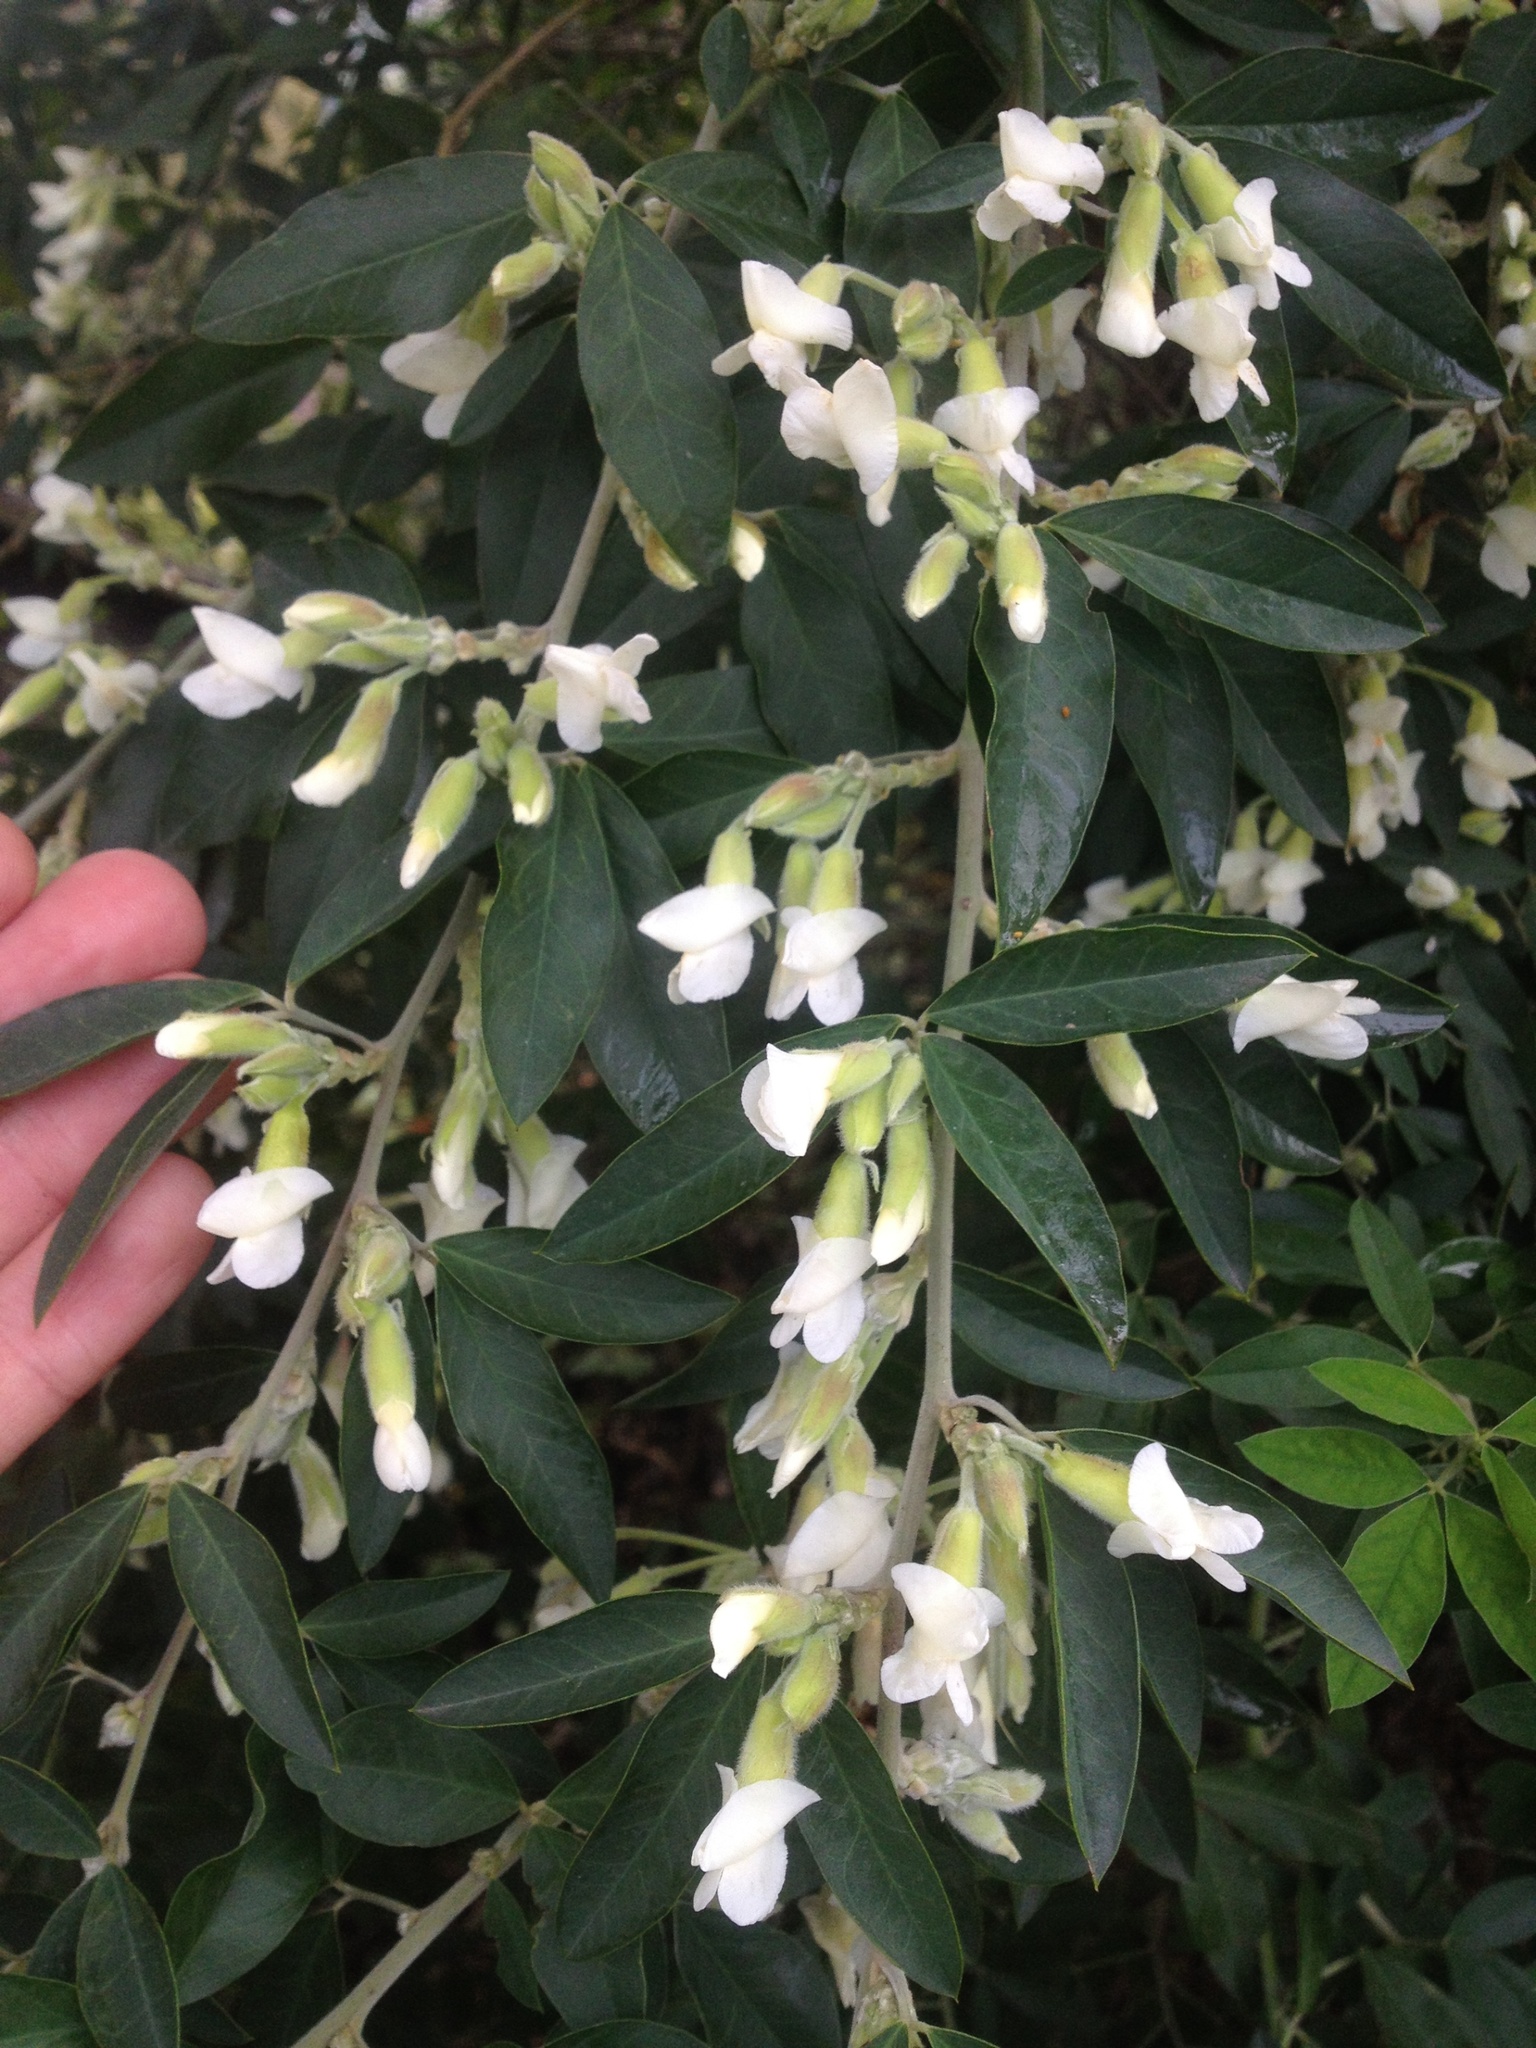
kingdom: Plantae
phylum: Tracheophyta
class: Magnoliopsida
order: Fabales
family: Fabaceae
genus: Chamaecytisus
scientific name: Chamaecytisus prolifer
